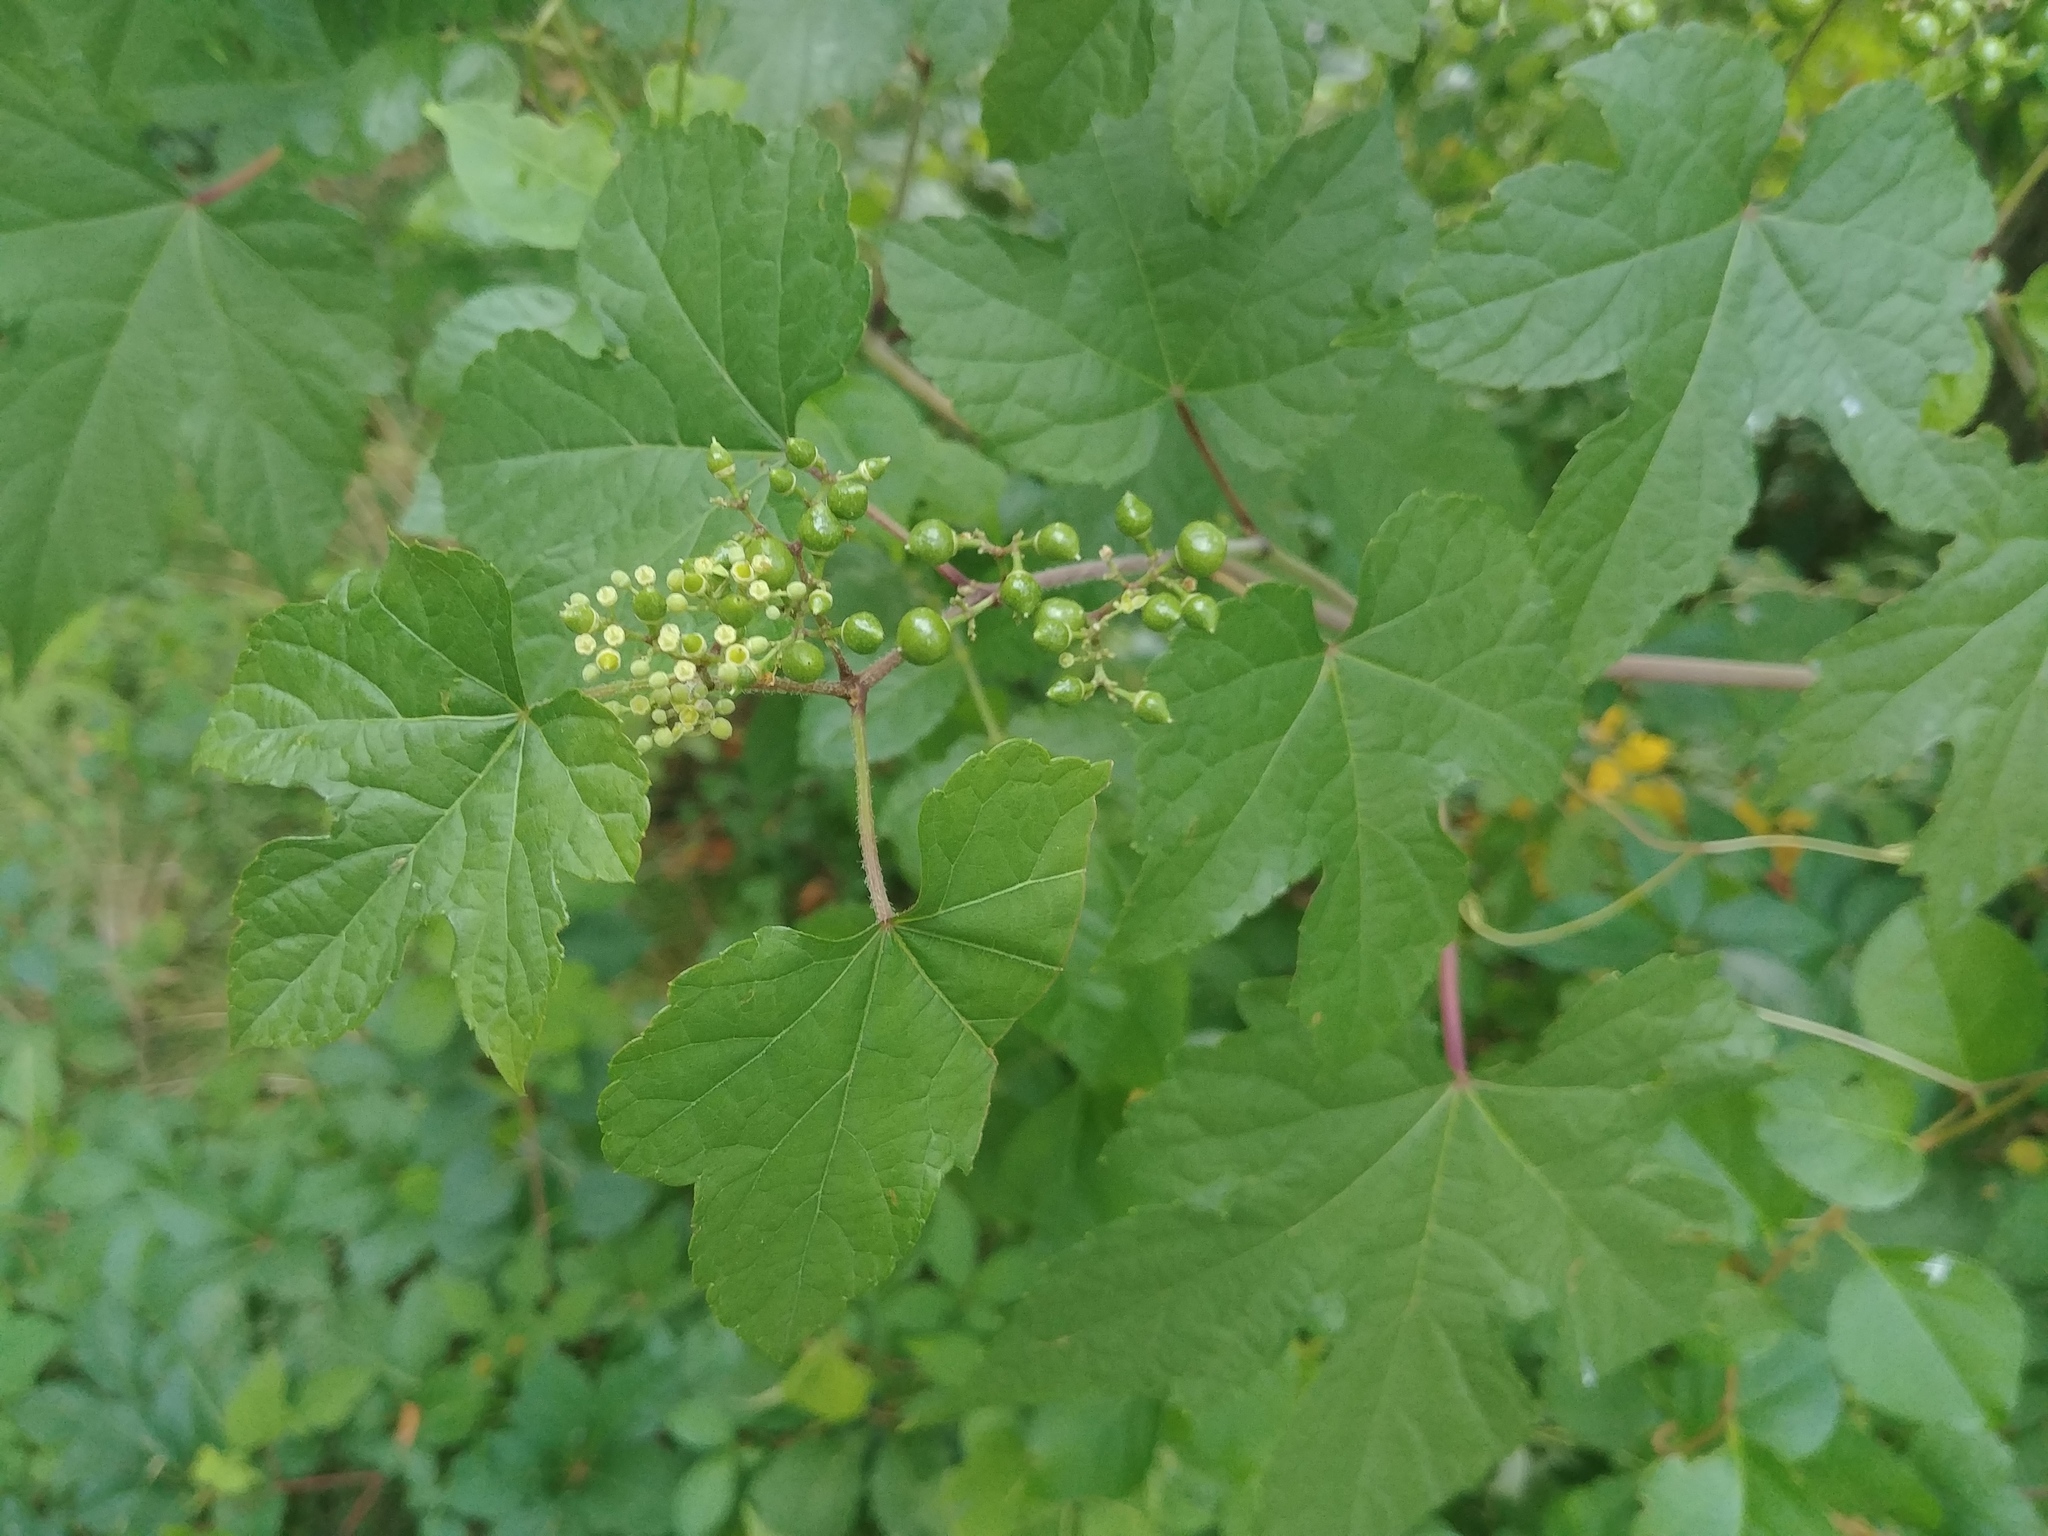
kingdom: Plantae
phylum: Tracheophyta
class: Magnoliopsida
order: Vitales
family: Vitaceae
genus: Ampelopsis
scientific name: Ampelopsis glandulosa
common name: Amur peppervine
